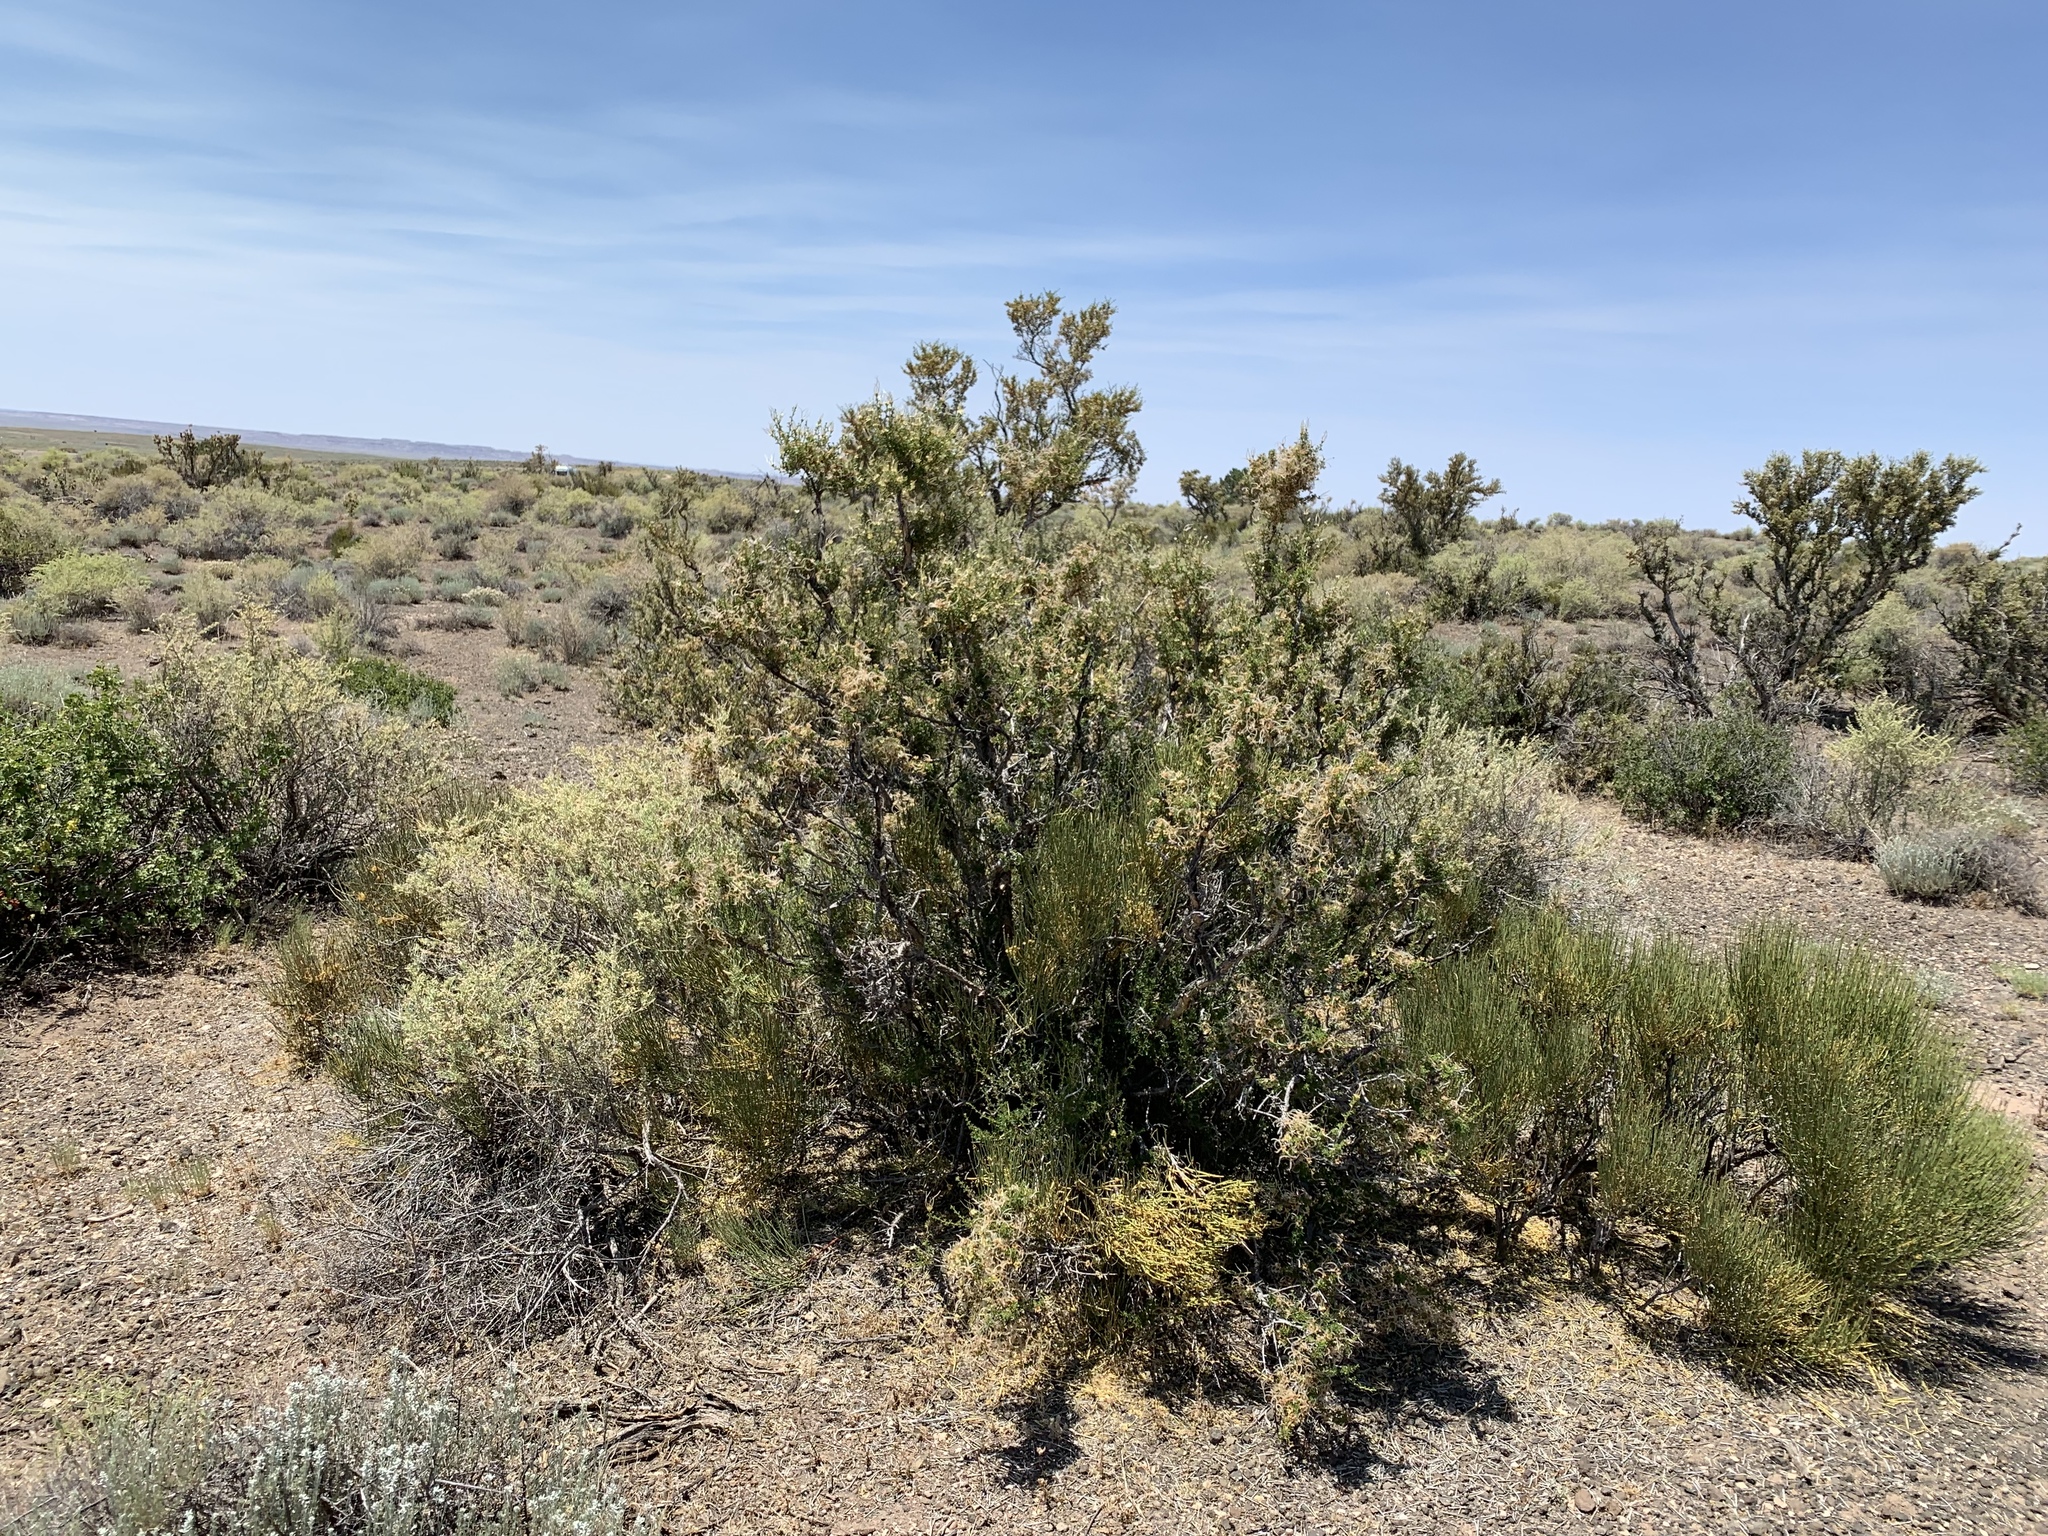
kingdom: Plantae
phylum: Tracheophyta
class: Magnoliopsida
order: Rosales
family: Rosaceae
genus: Purshia
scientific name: Purshia stansburiana
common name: Stansbury's cliffrose
